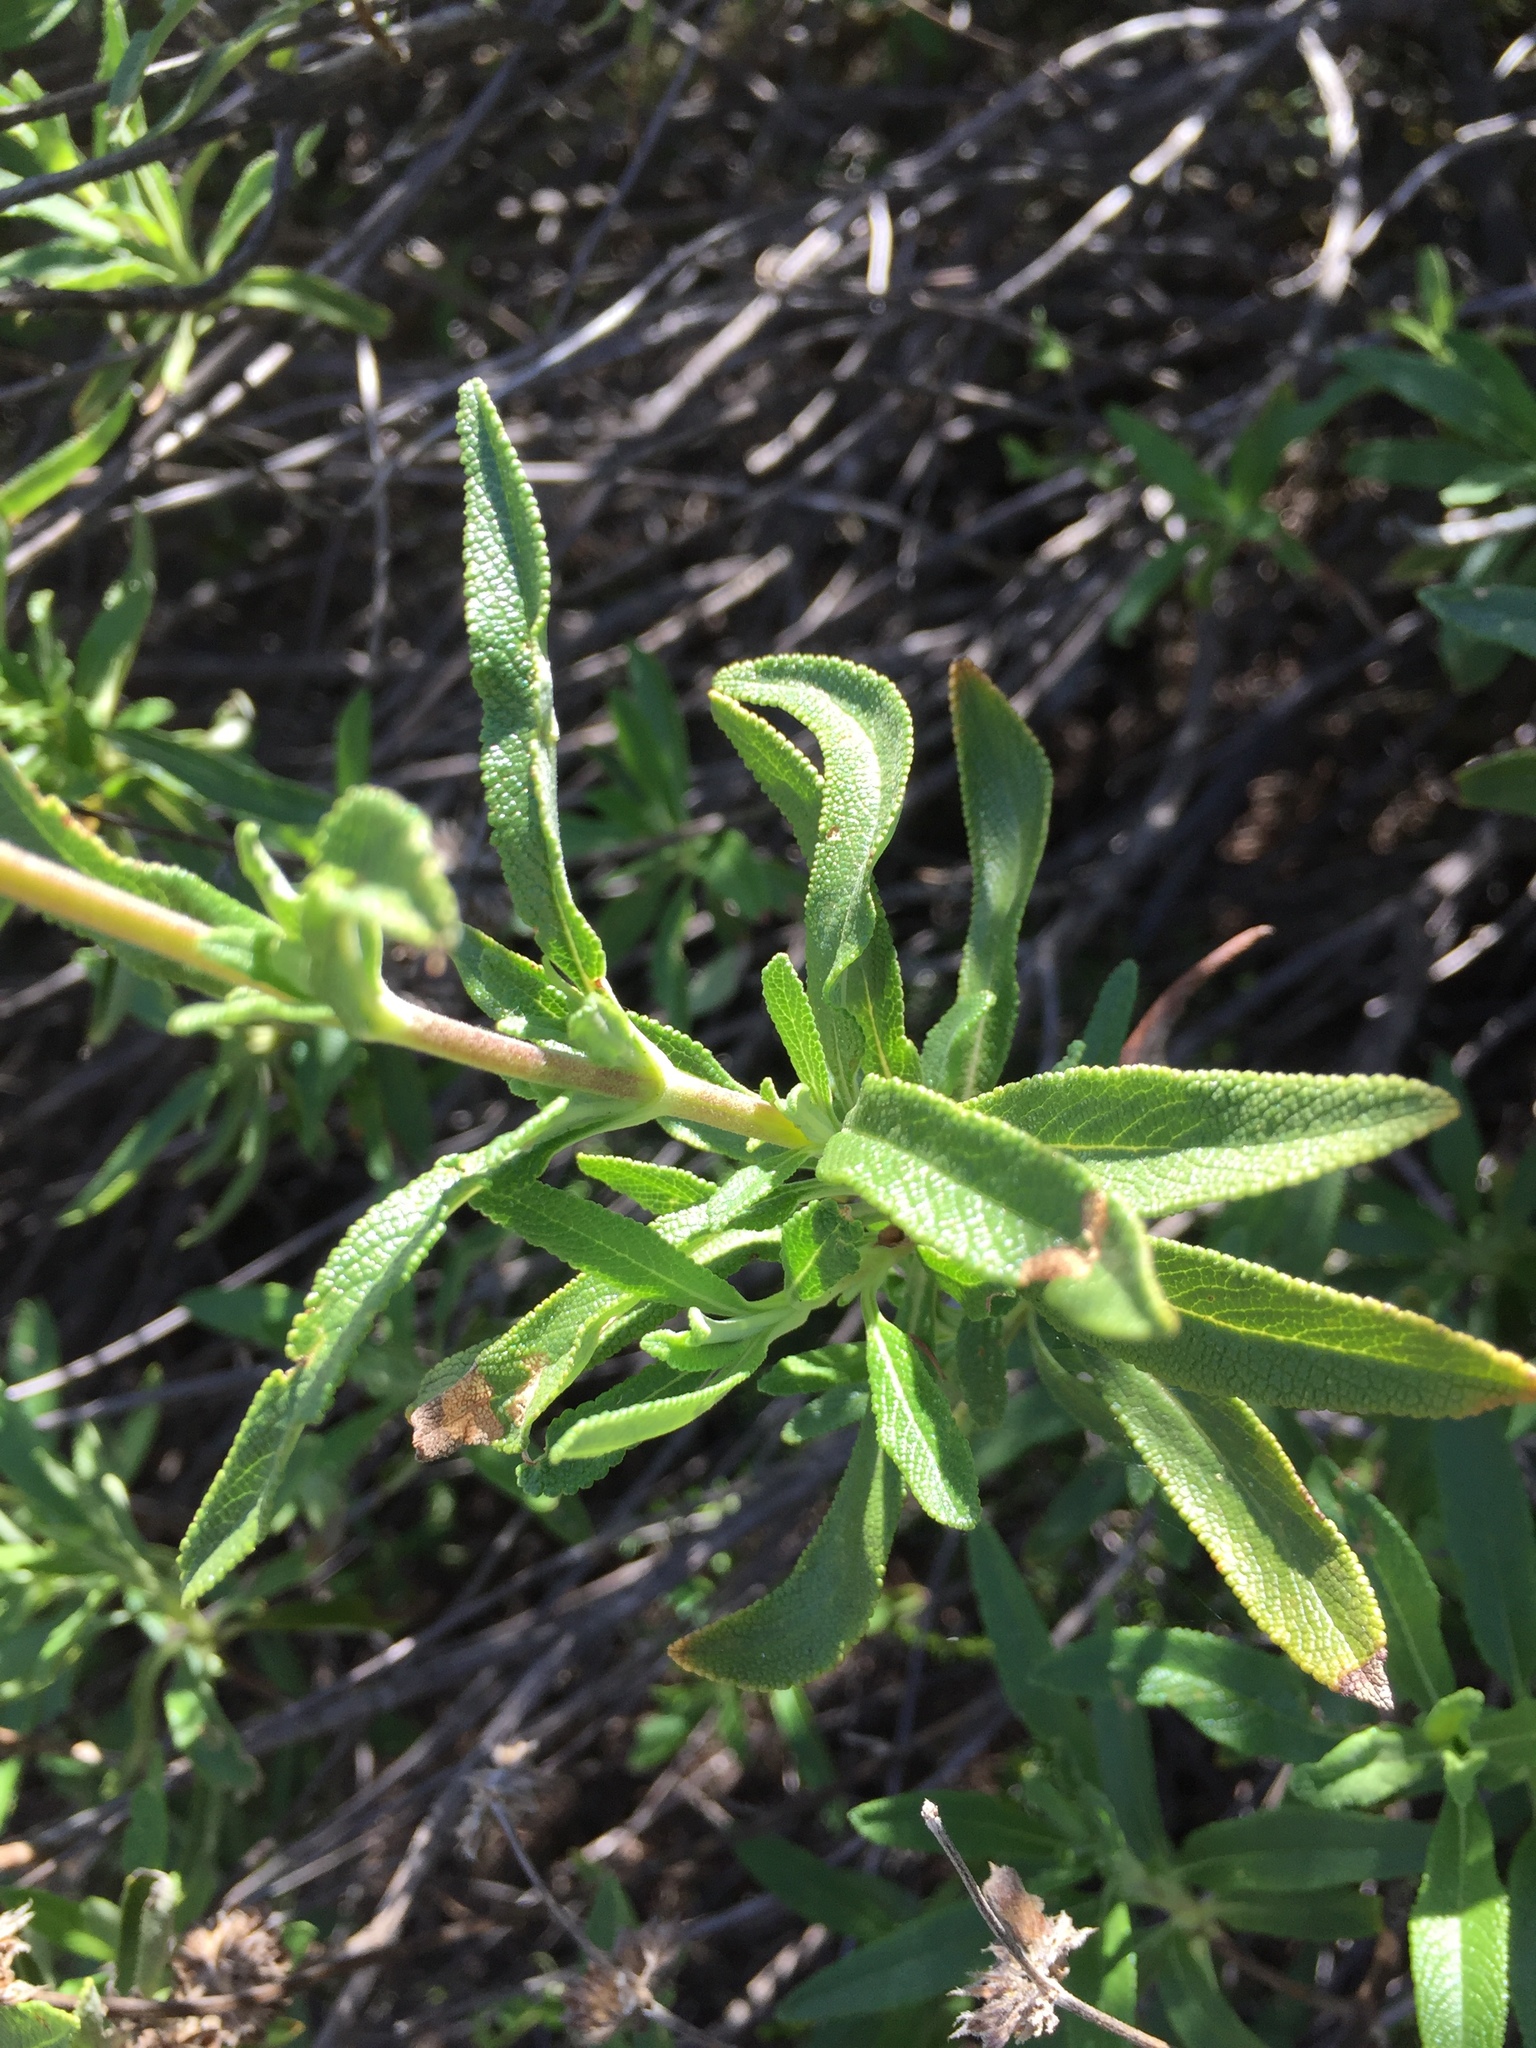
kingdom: Plantae
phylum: Tracheophyta
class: Magnoliopsida
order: Lamiales
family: Lamiaceae
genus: Salvia
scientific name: Salvia mellifera
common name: Black sage
